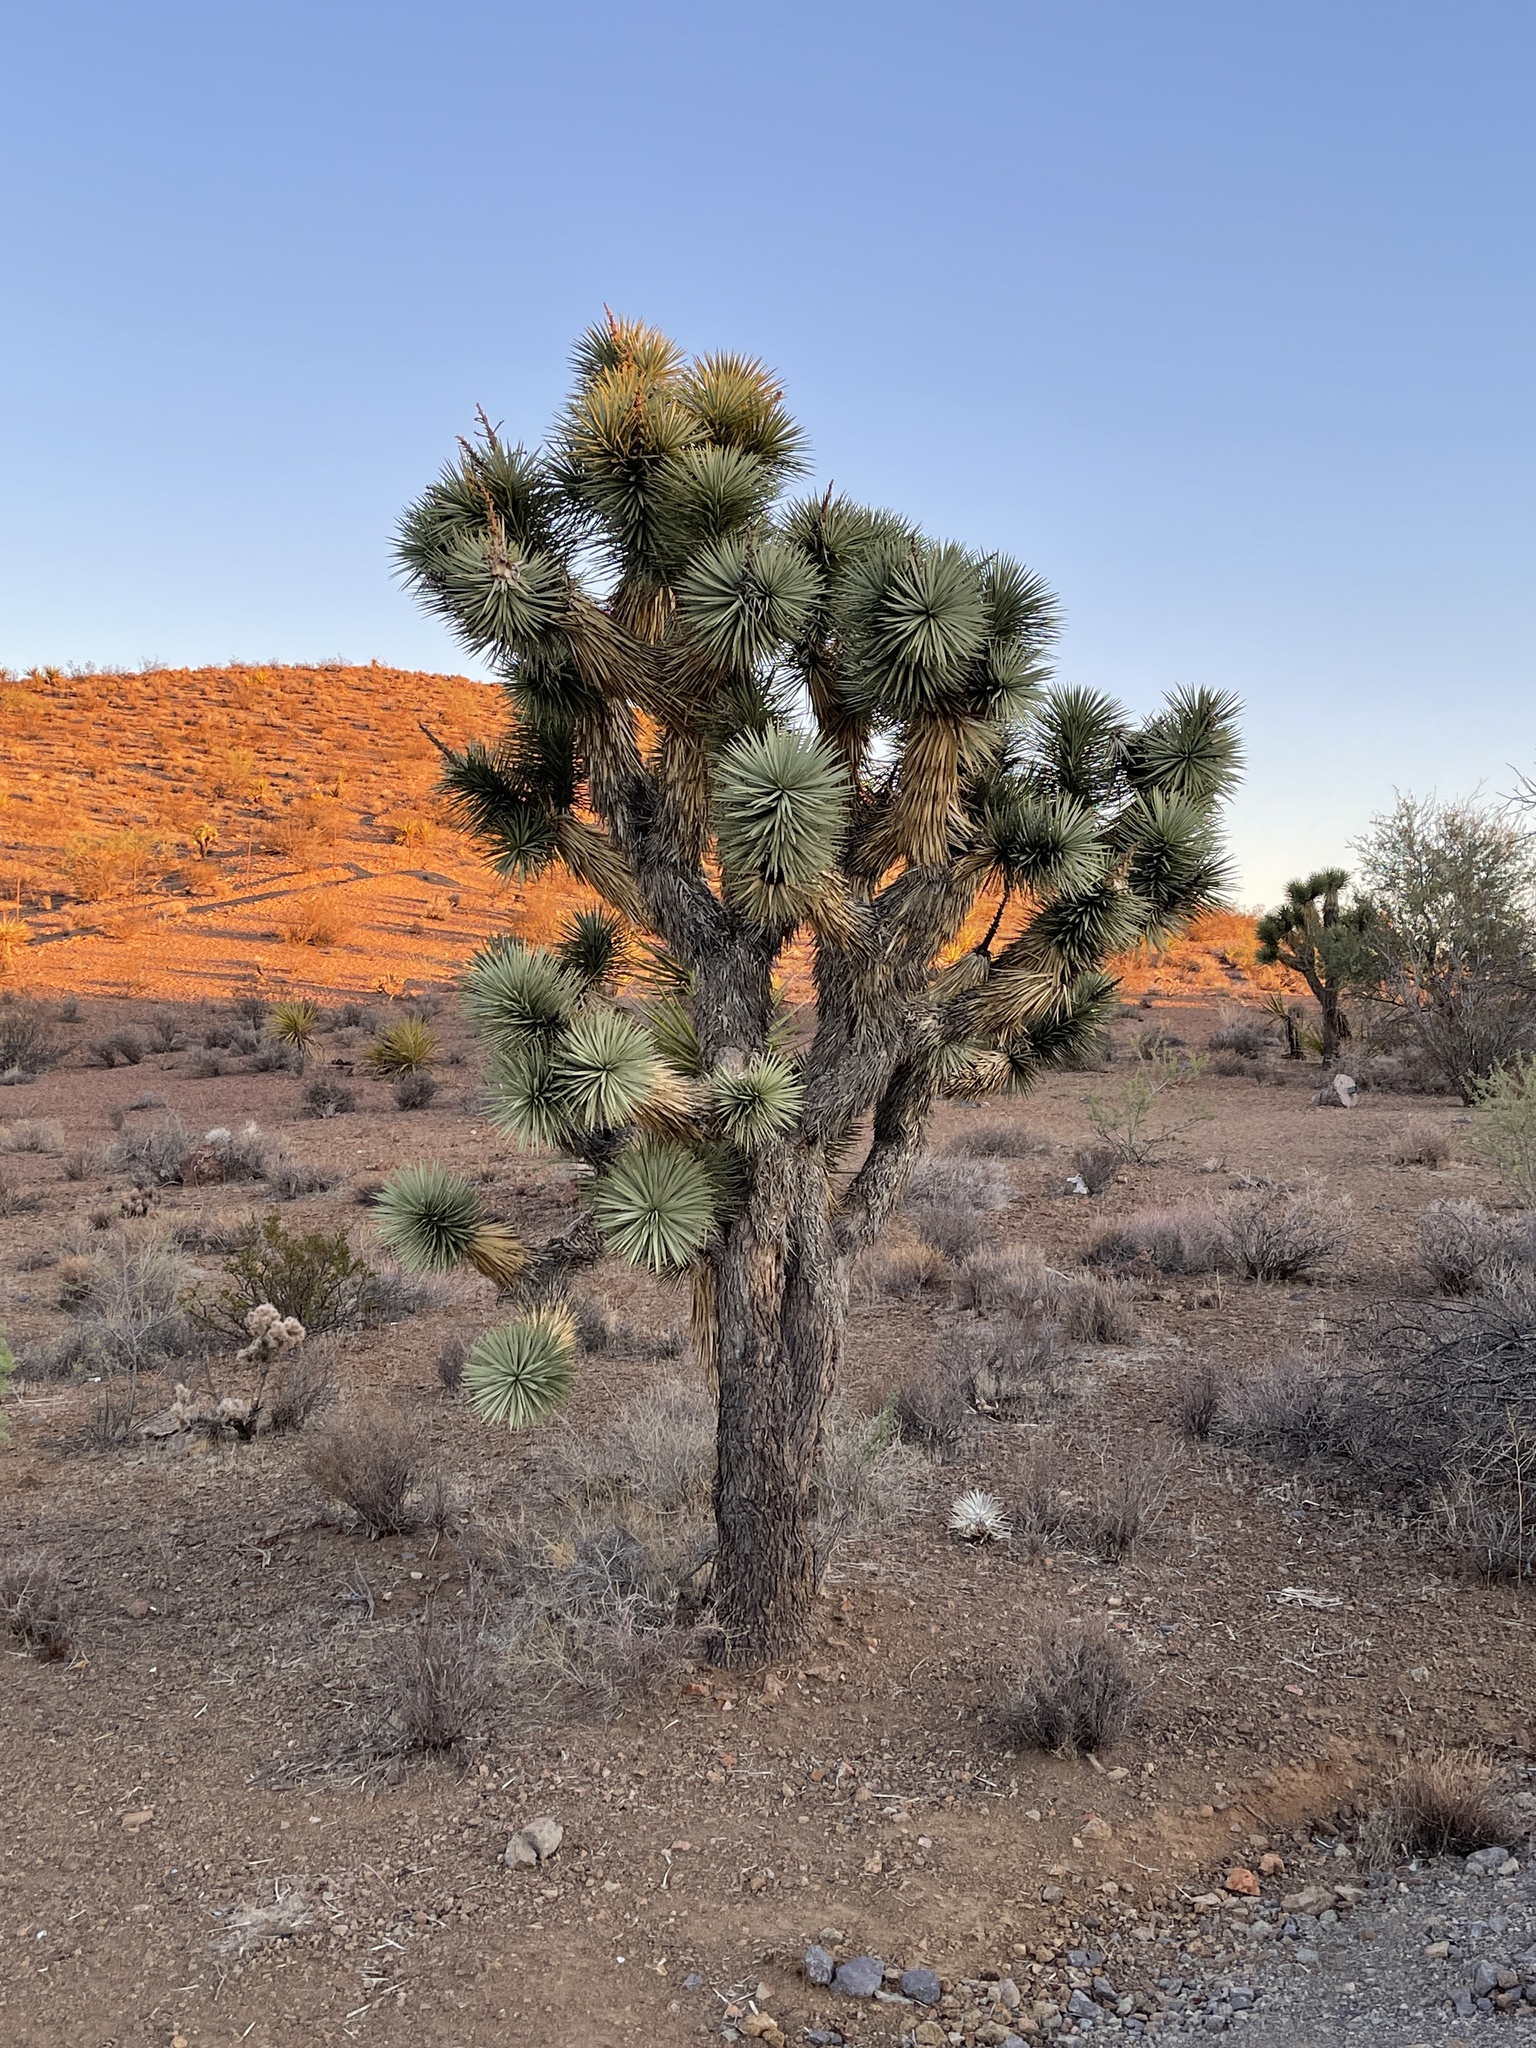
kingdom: Plantae
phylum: Tracheophyta
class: Liliopsida
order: Asparagales
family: Asparagaceae
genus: Yucca
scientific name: Yucca brevifolia
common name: Joshua tree
